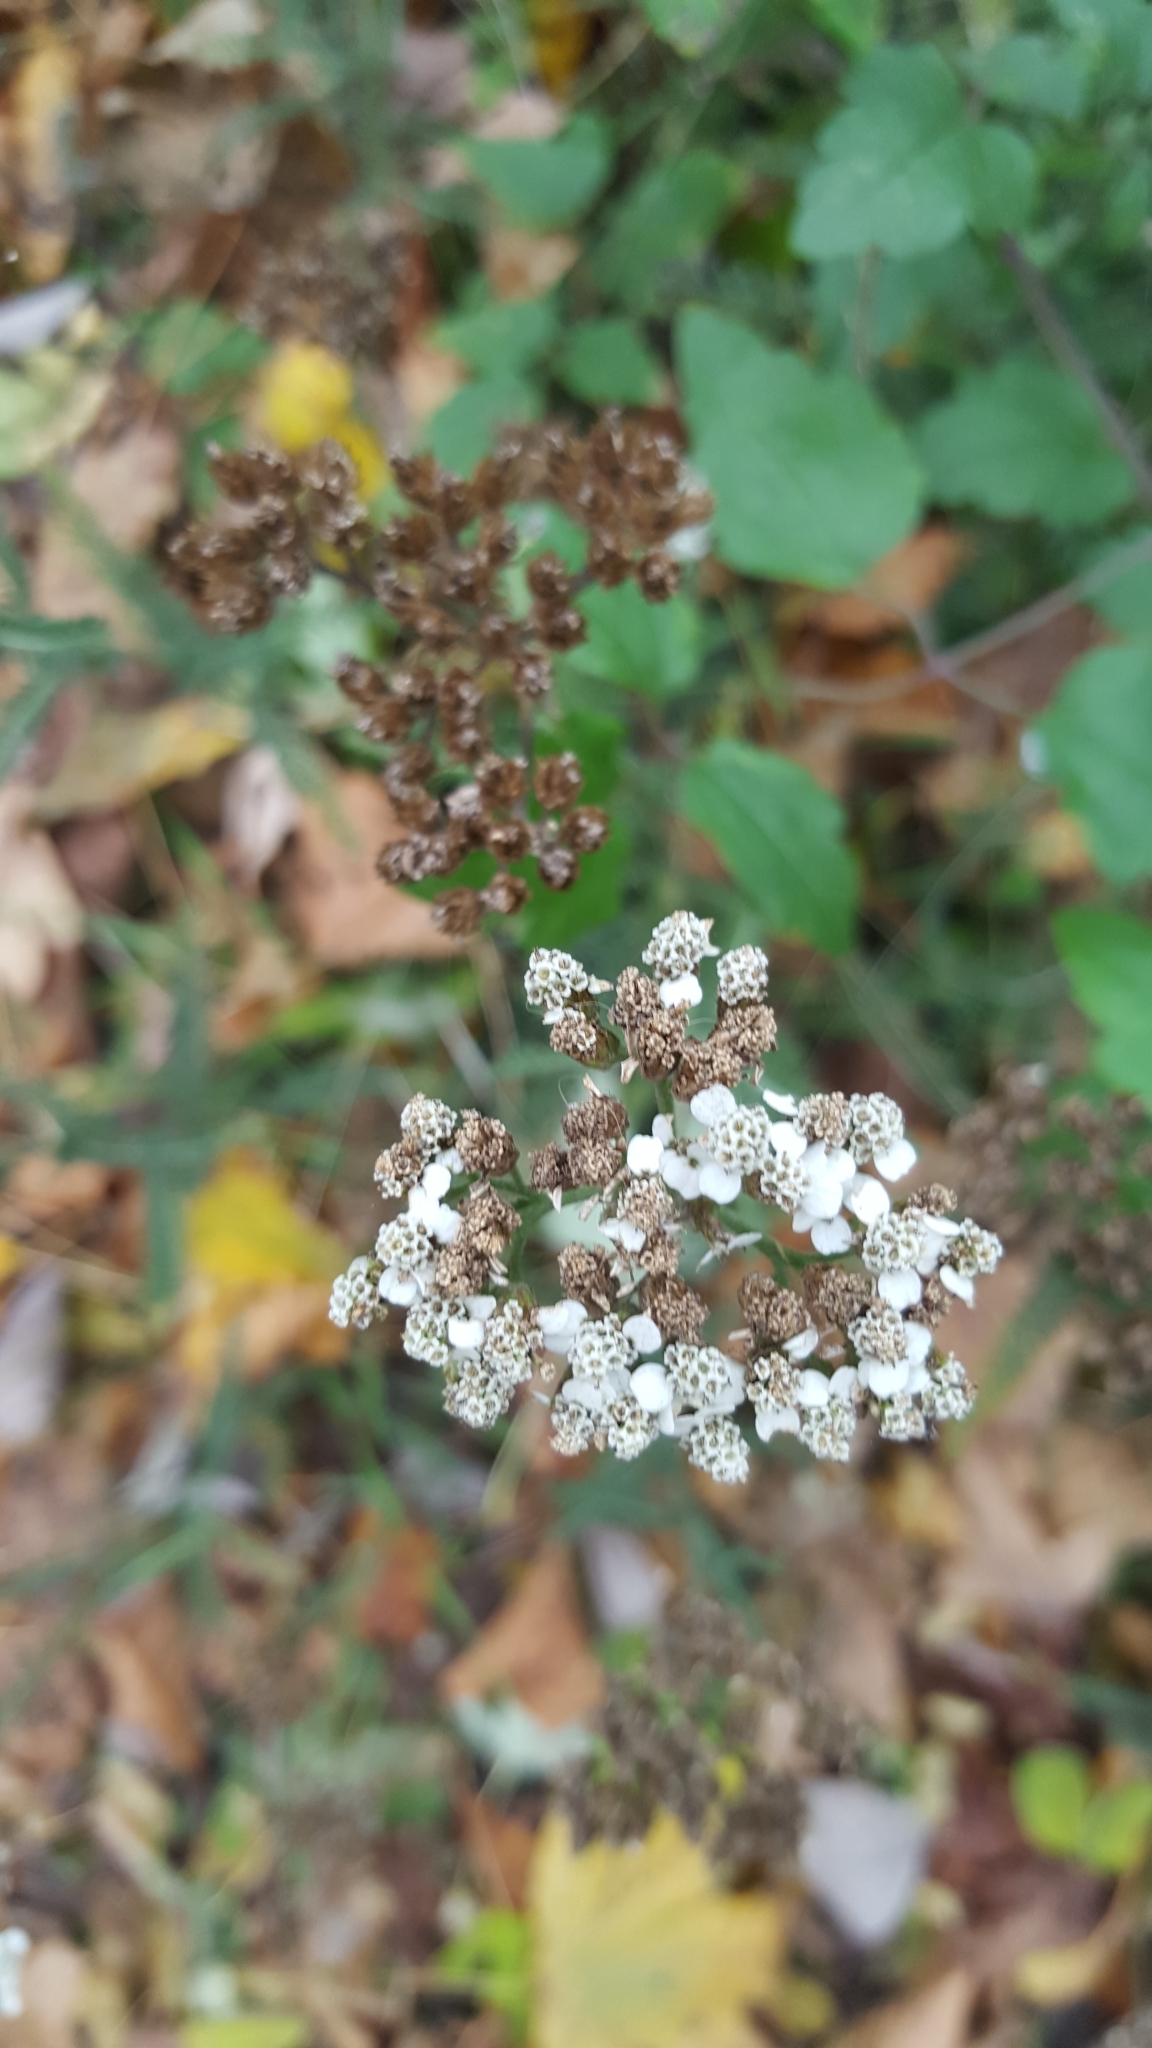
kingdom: Plantae
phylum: Tracheophyta
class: Magnoliopsida
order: Asterales
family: Asteraceae
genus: Achillea
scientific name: Achillea millefolium
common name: Yarrow
